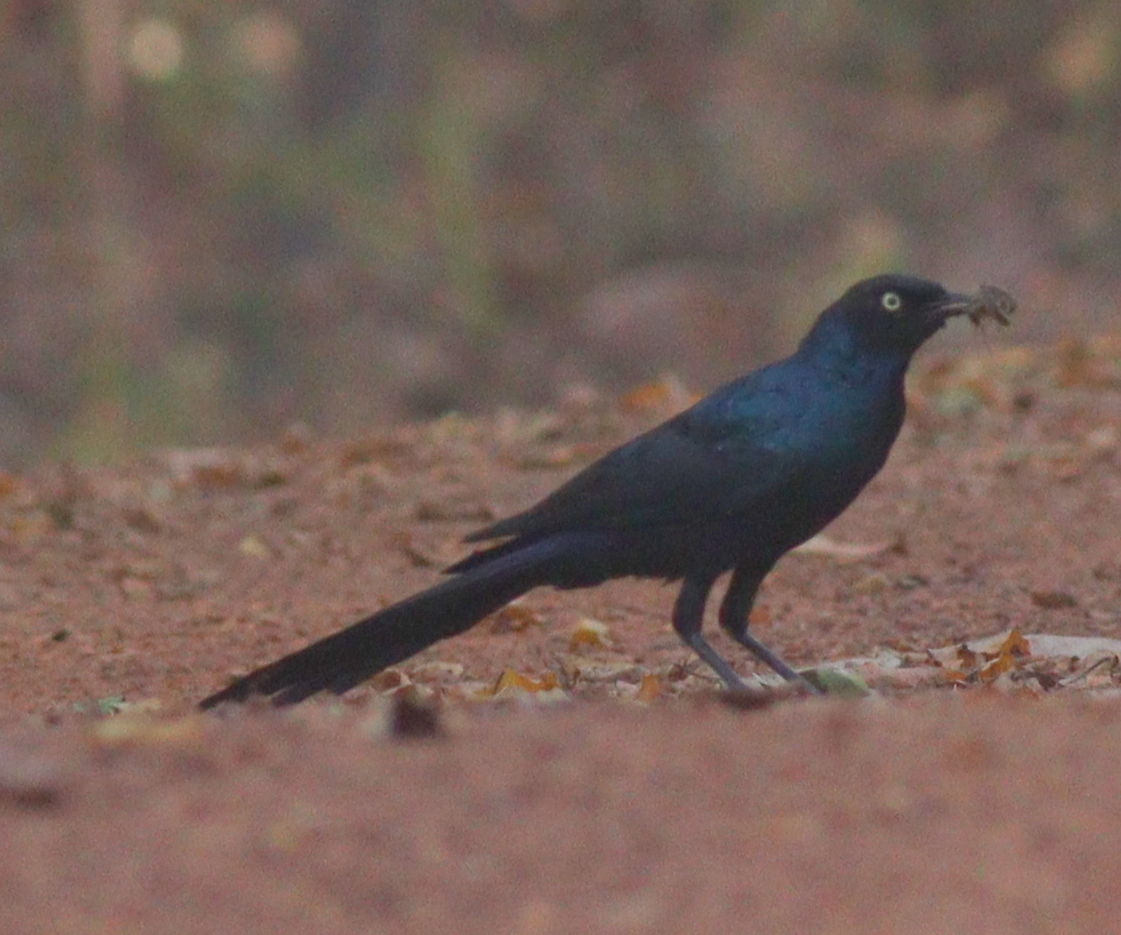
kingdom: Animalia
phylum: Chordata
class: Aves
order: Passeriformes
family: Sturnidae
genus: Lamprotornis
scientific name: Lamprotornis caudatus
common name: Long-tailed glossy starling
